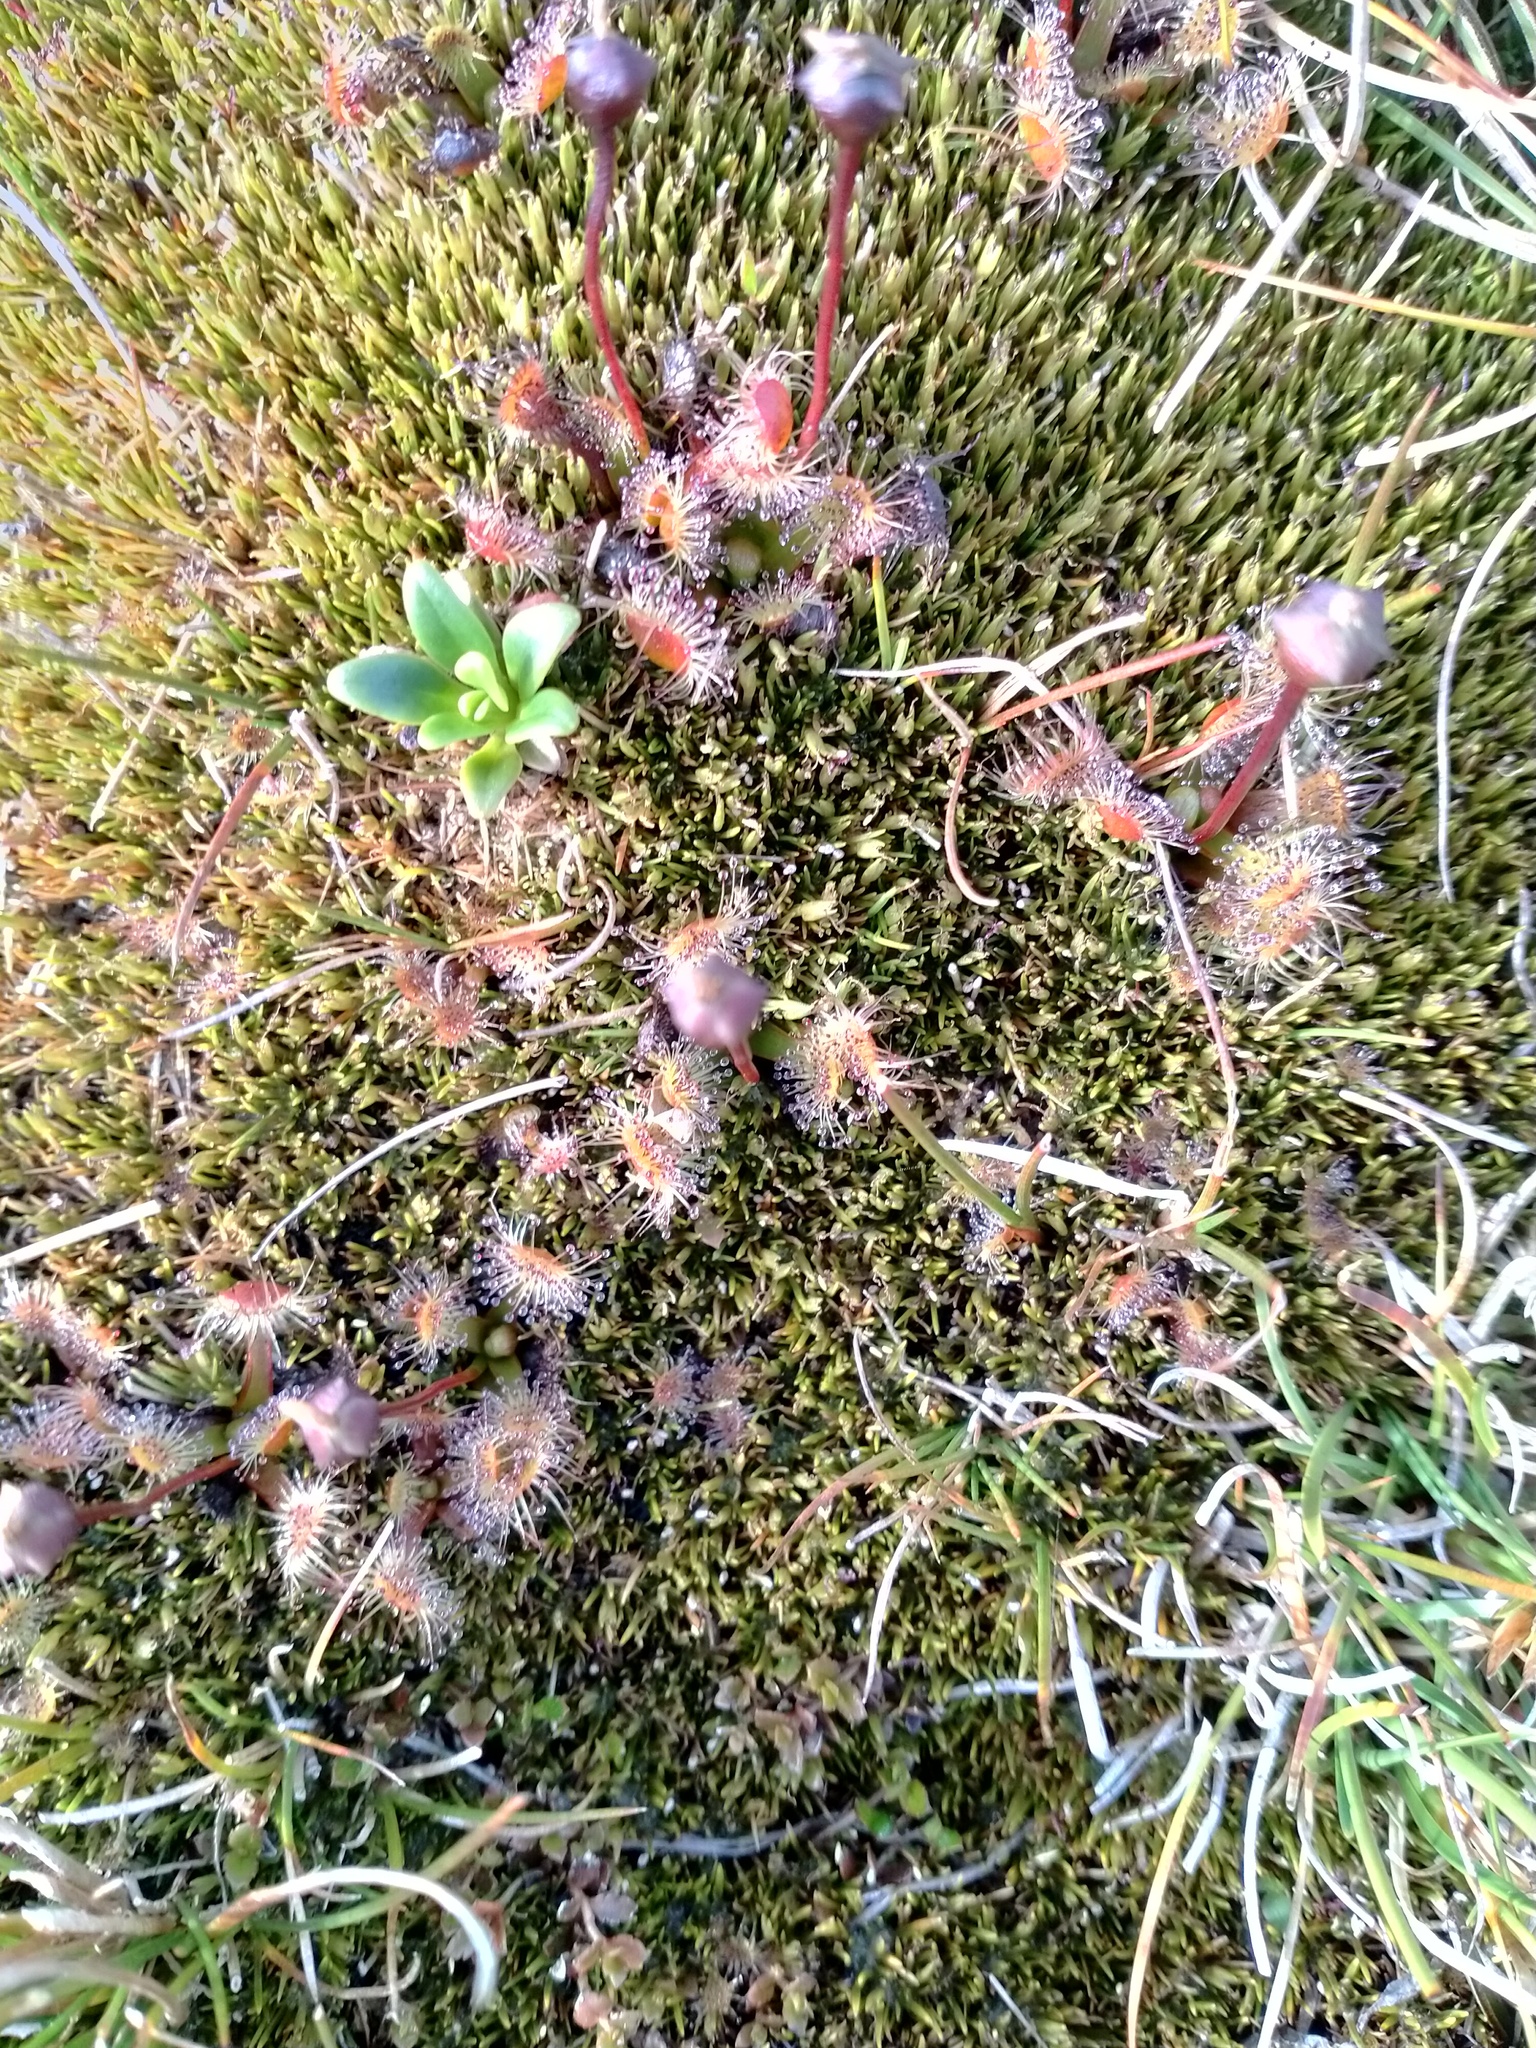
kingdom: Plantae
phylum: Tracheophyta
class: Magnoliopsida
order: Caryophyllales
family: Droseraceae
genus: Drosera
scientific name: Drosera stenopetala
